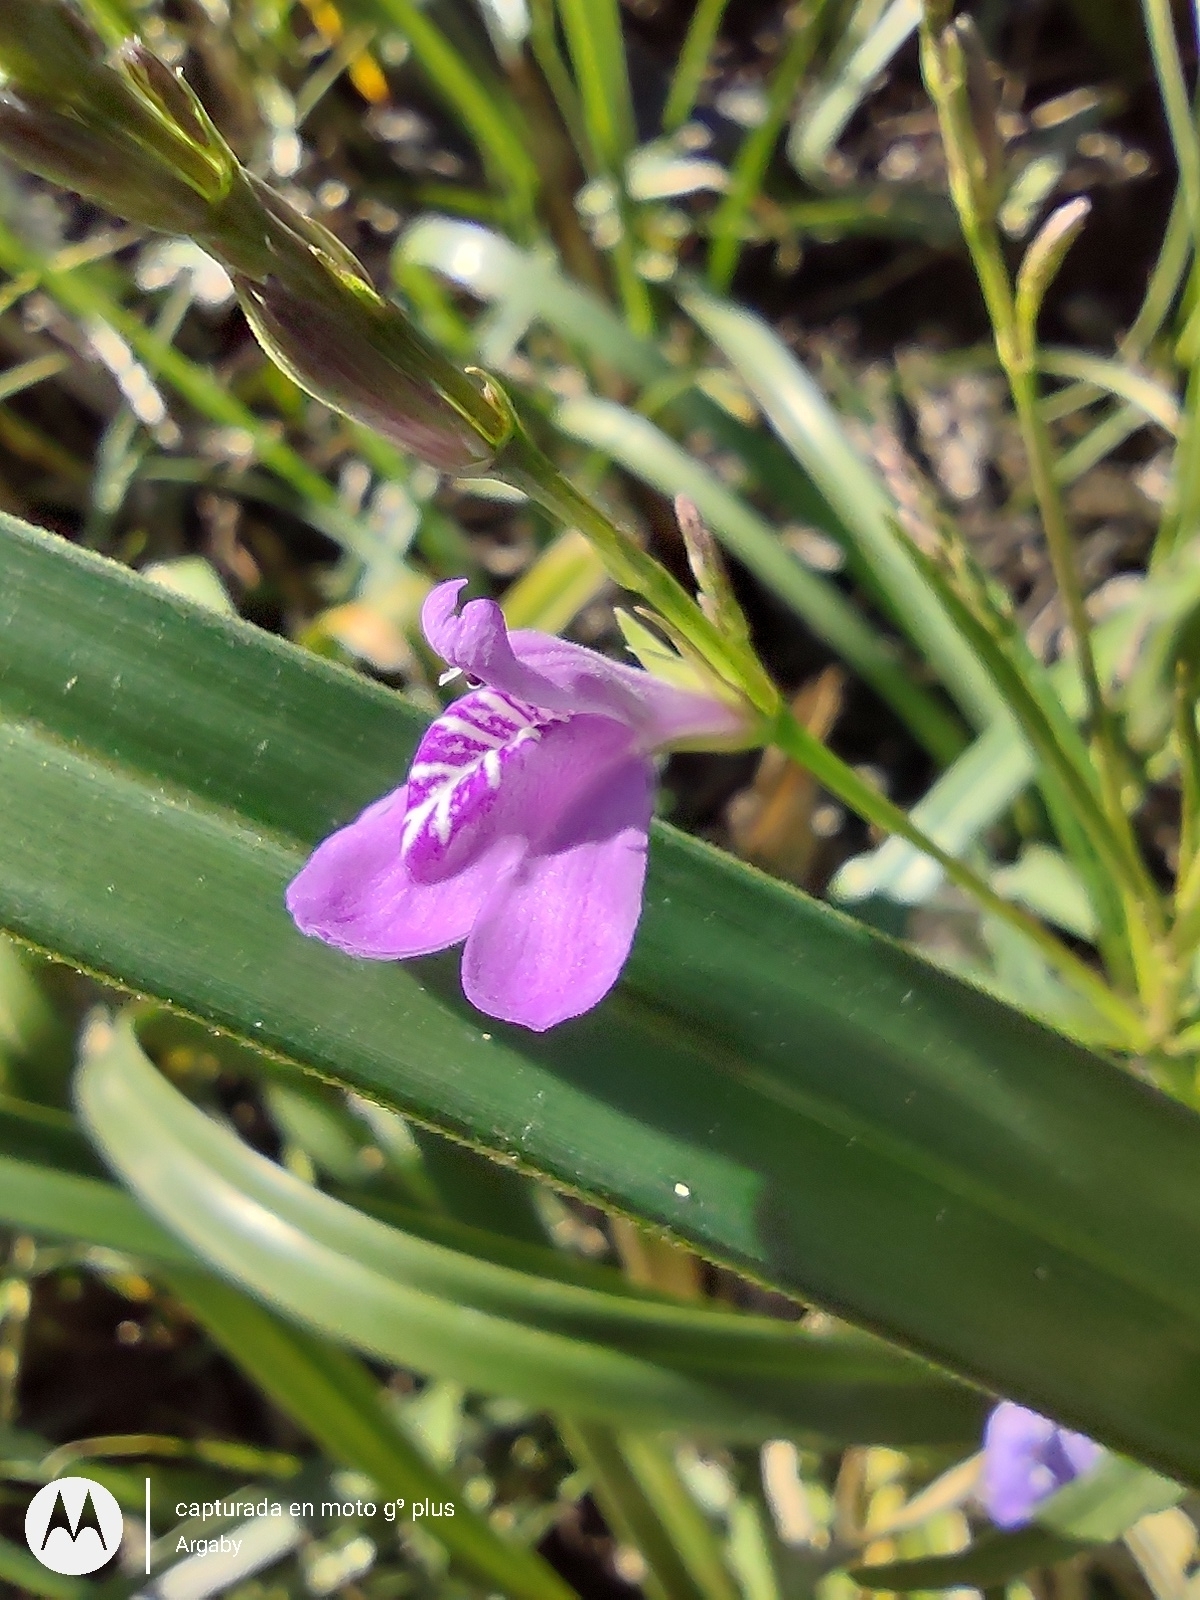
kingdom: Plantae
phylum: Tracheophyta
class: Magnoliopsida
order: Lamiales
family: Acanthaceae
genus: Dianthera
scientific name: Dianthera laevilinguis
